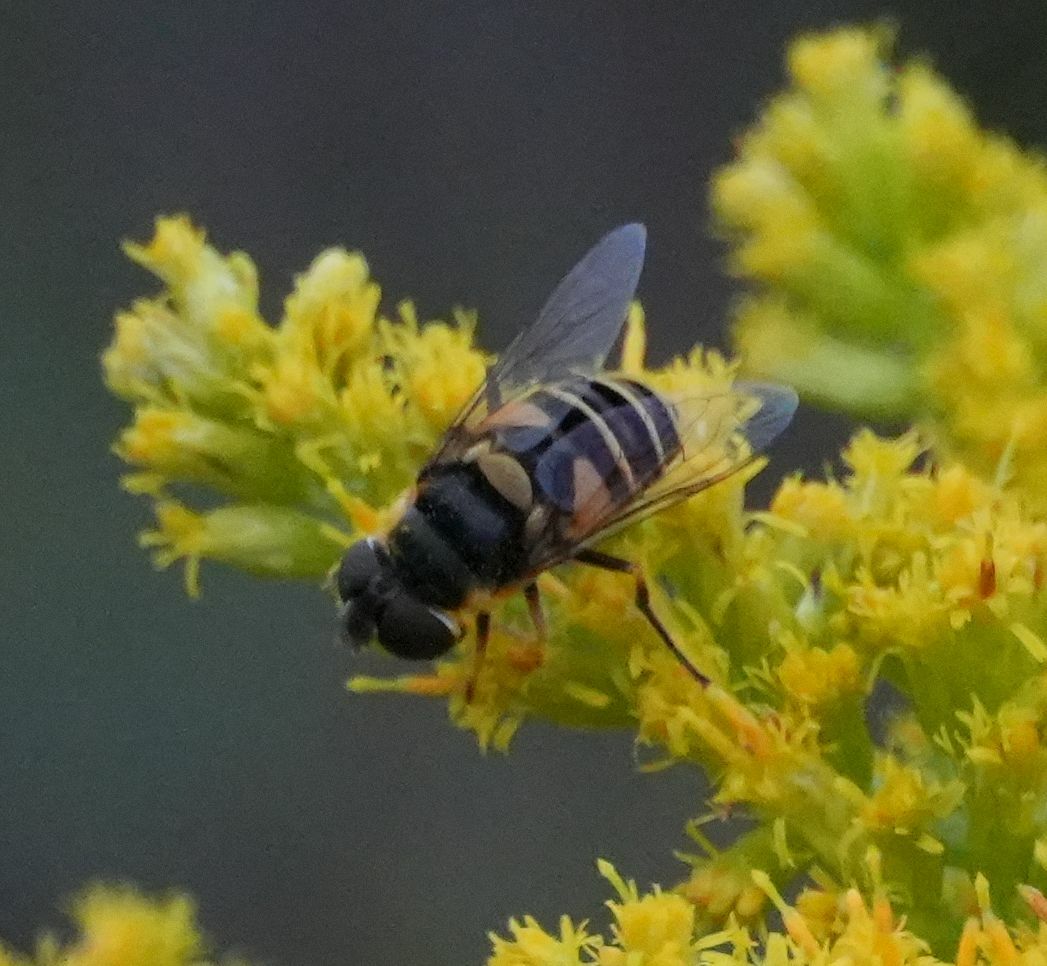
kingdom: Animalia
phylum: Arthropoda
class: Insecta
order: Diptera
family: Syrphidae
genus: Eristalis
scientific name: Eristalis transversa
